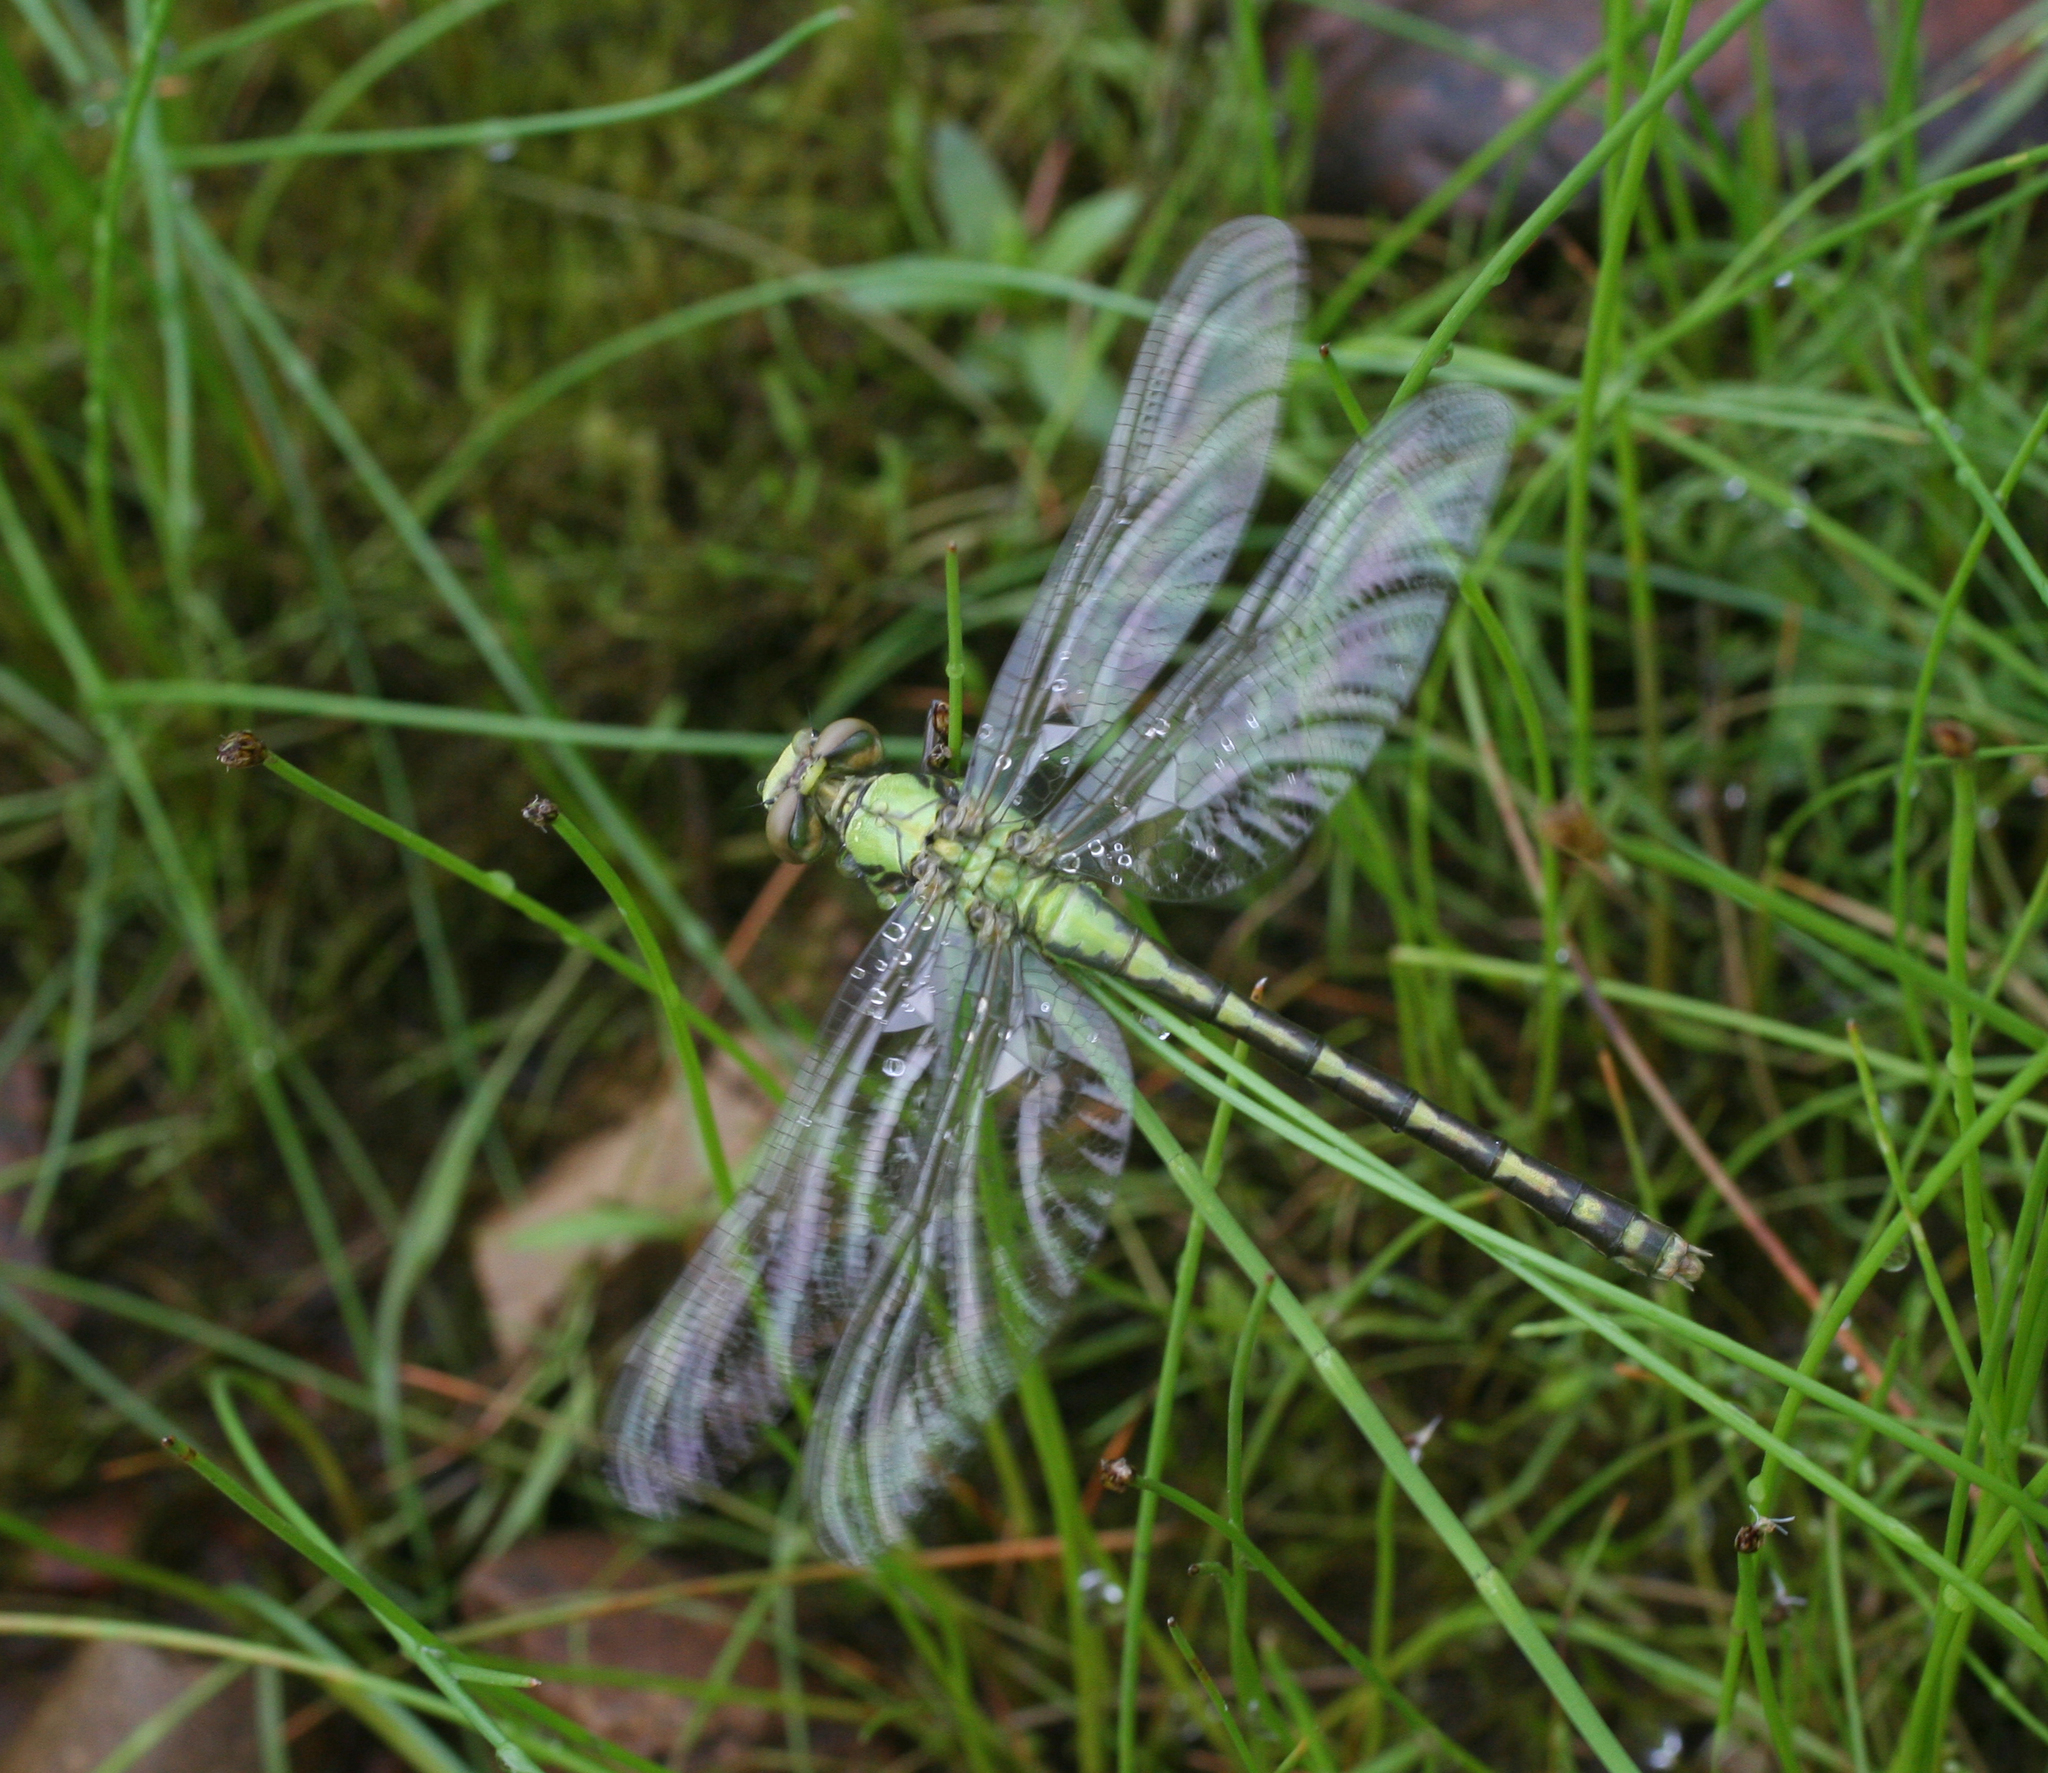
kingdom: Animalia
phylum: Arthropoda
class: Insecta
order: Odonata
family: Gomphidae
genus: Ophiogomphus
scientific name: Ophiogomphus obscurus
